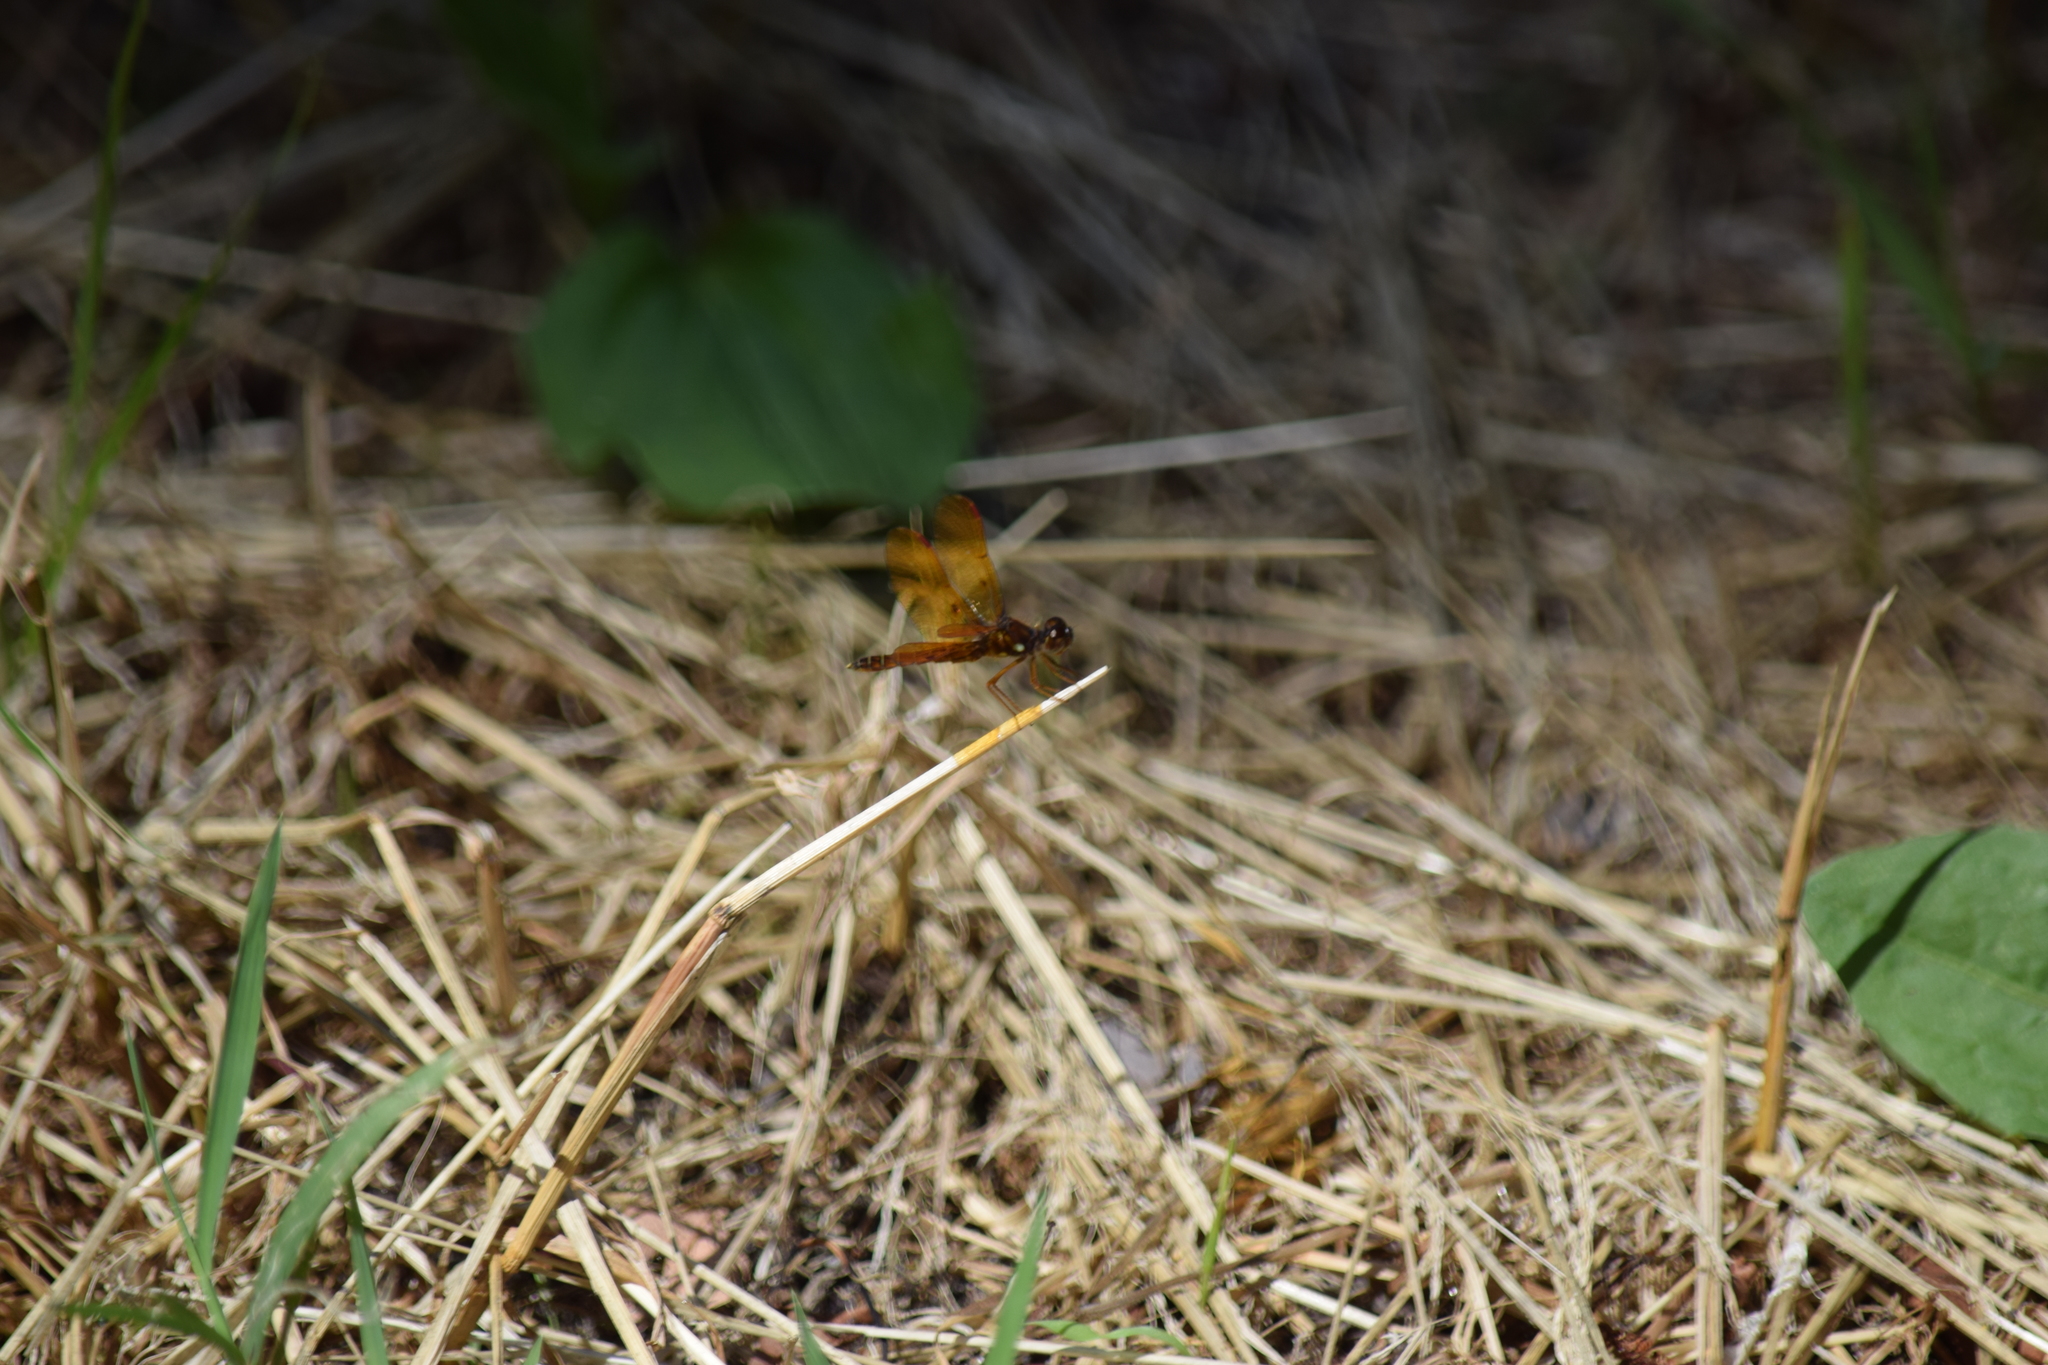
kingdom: Animalia
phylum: Arthropoda
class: Insecta
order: Odonata
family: Libellulidae
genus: Perithemis
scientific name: Perithemis tenera
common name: Eastern amberwing
